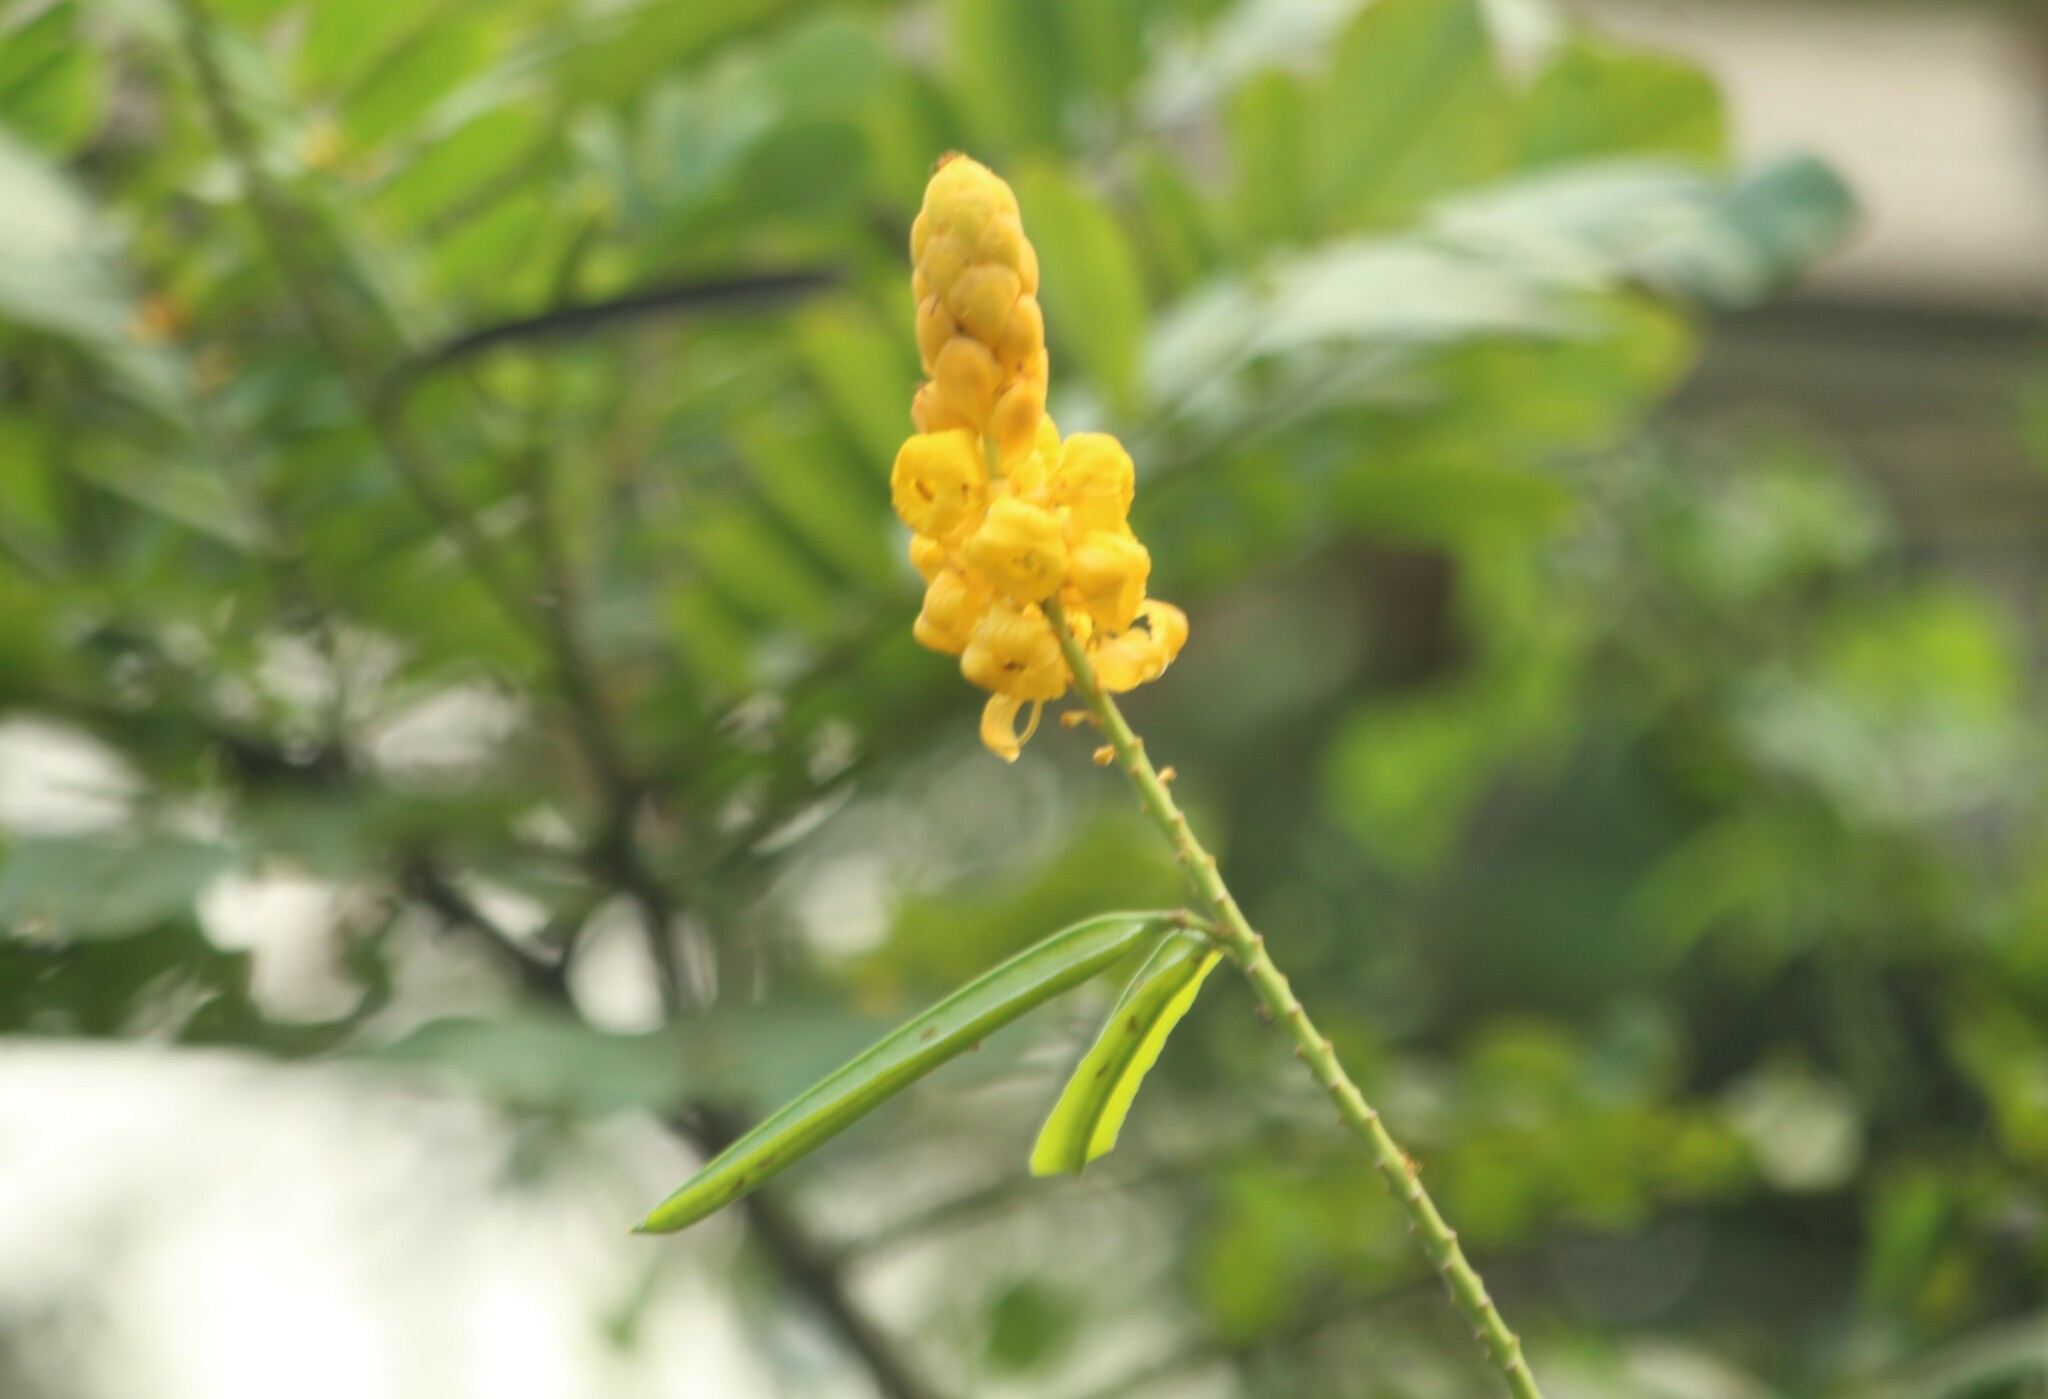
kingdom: Plantae
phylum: Tracheophyta
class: Magnoliopsida
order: Fabales
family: Fabaceae
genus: Senna
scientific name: Senna alata
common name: Emperor's candlesticks
